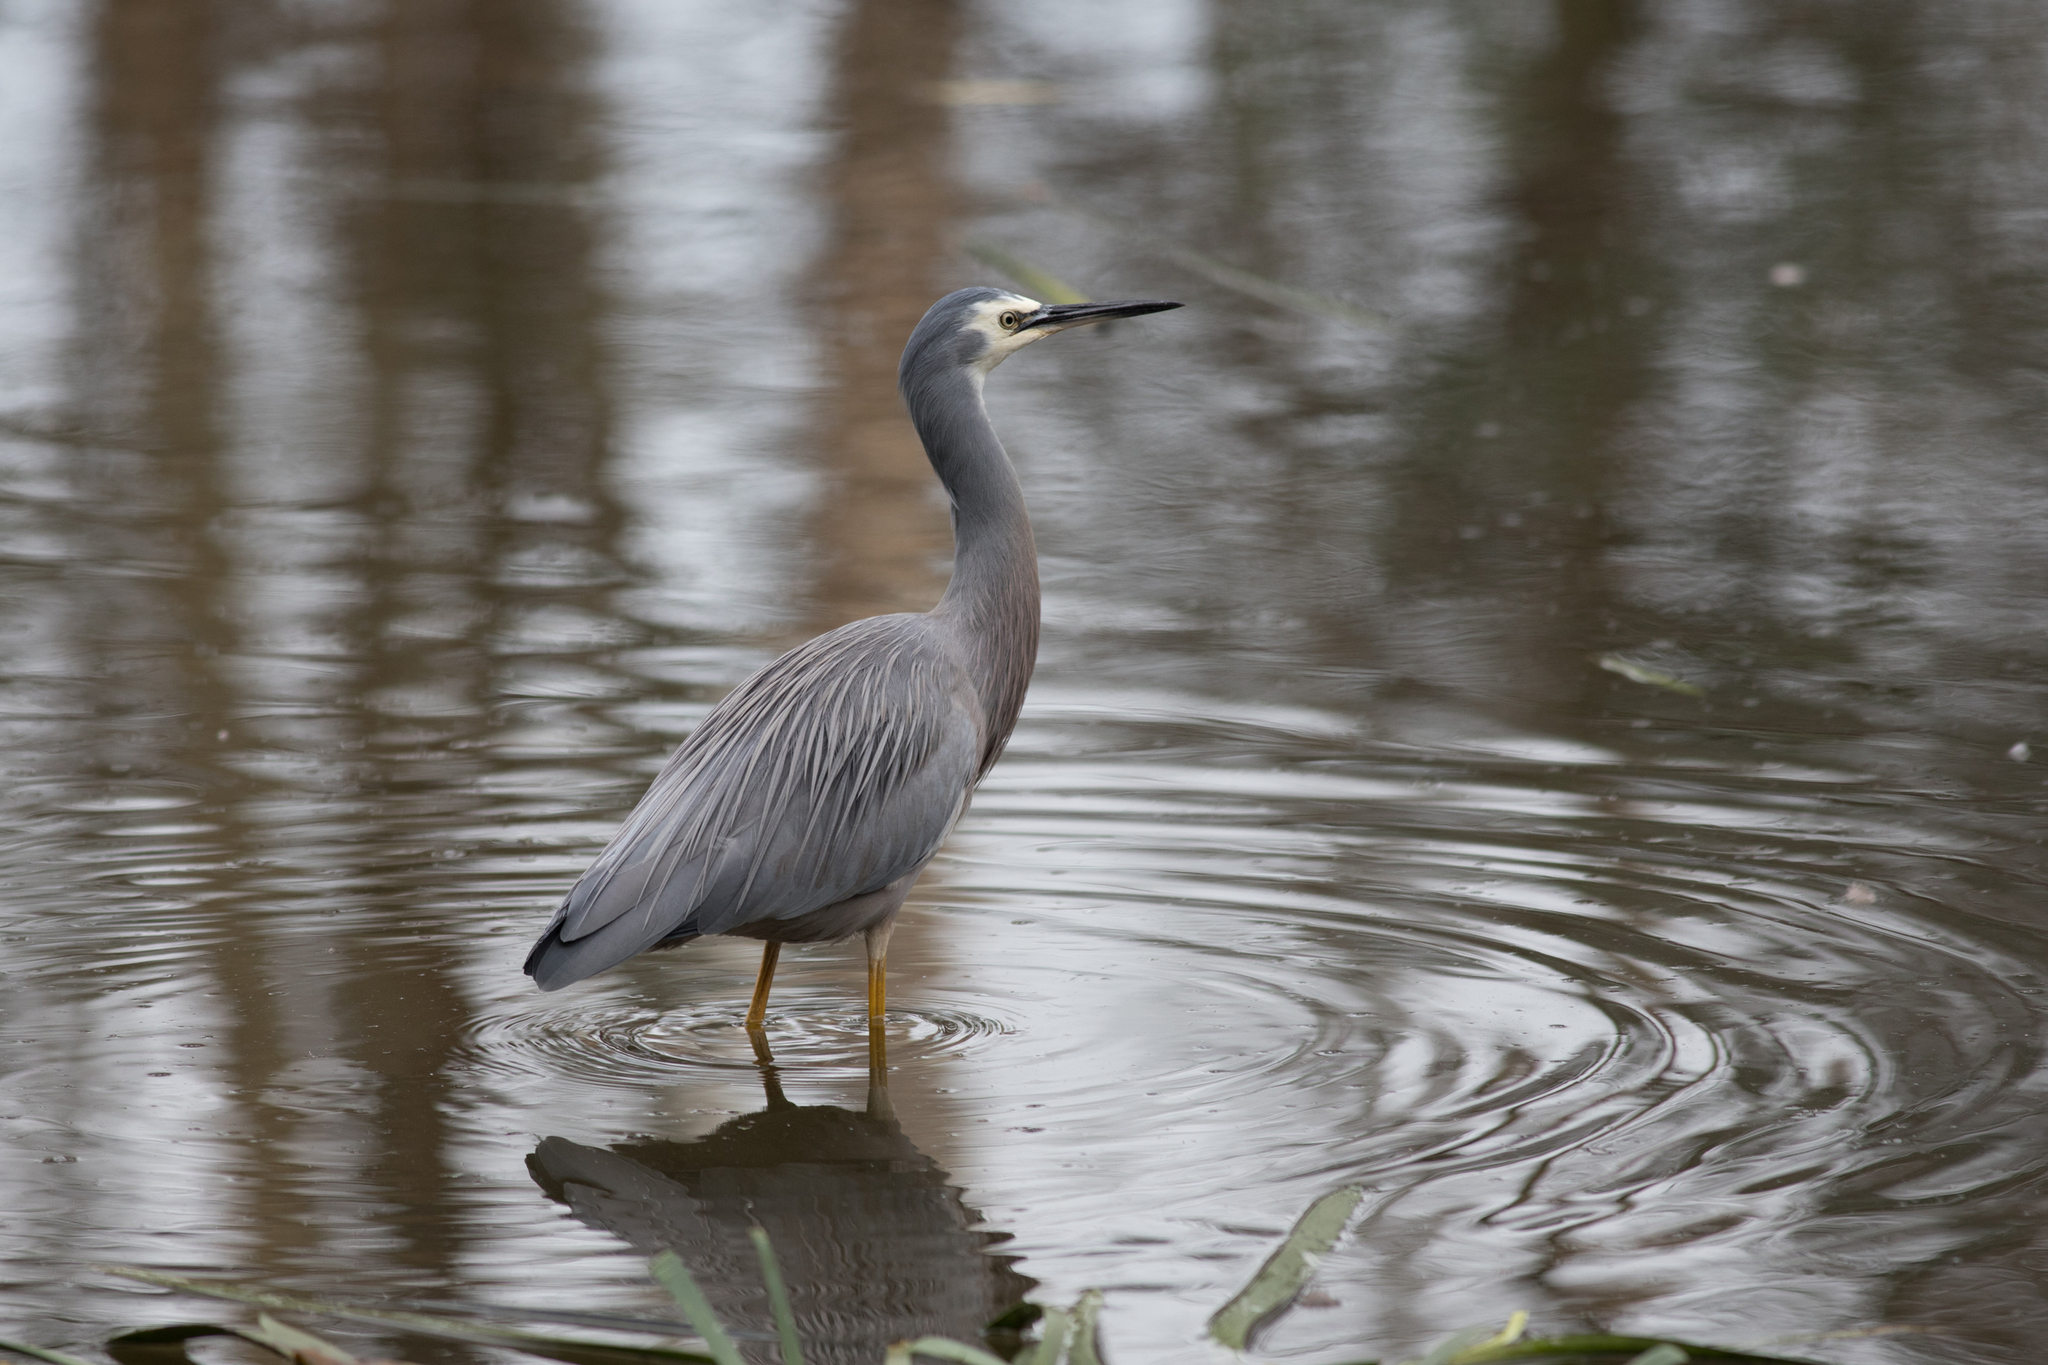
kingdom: Animalia
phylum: Chordata
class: Aves
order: Pelecaniformes
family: Ardeidae
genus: Egretta
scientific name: Egretta novaehollandiae
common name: White-faced heron
